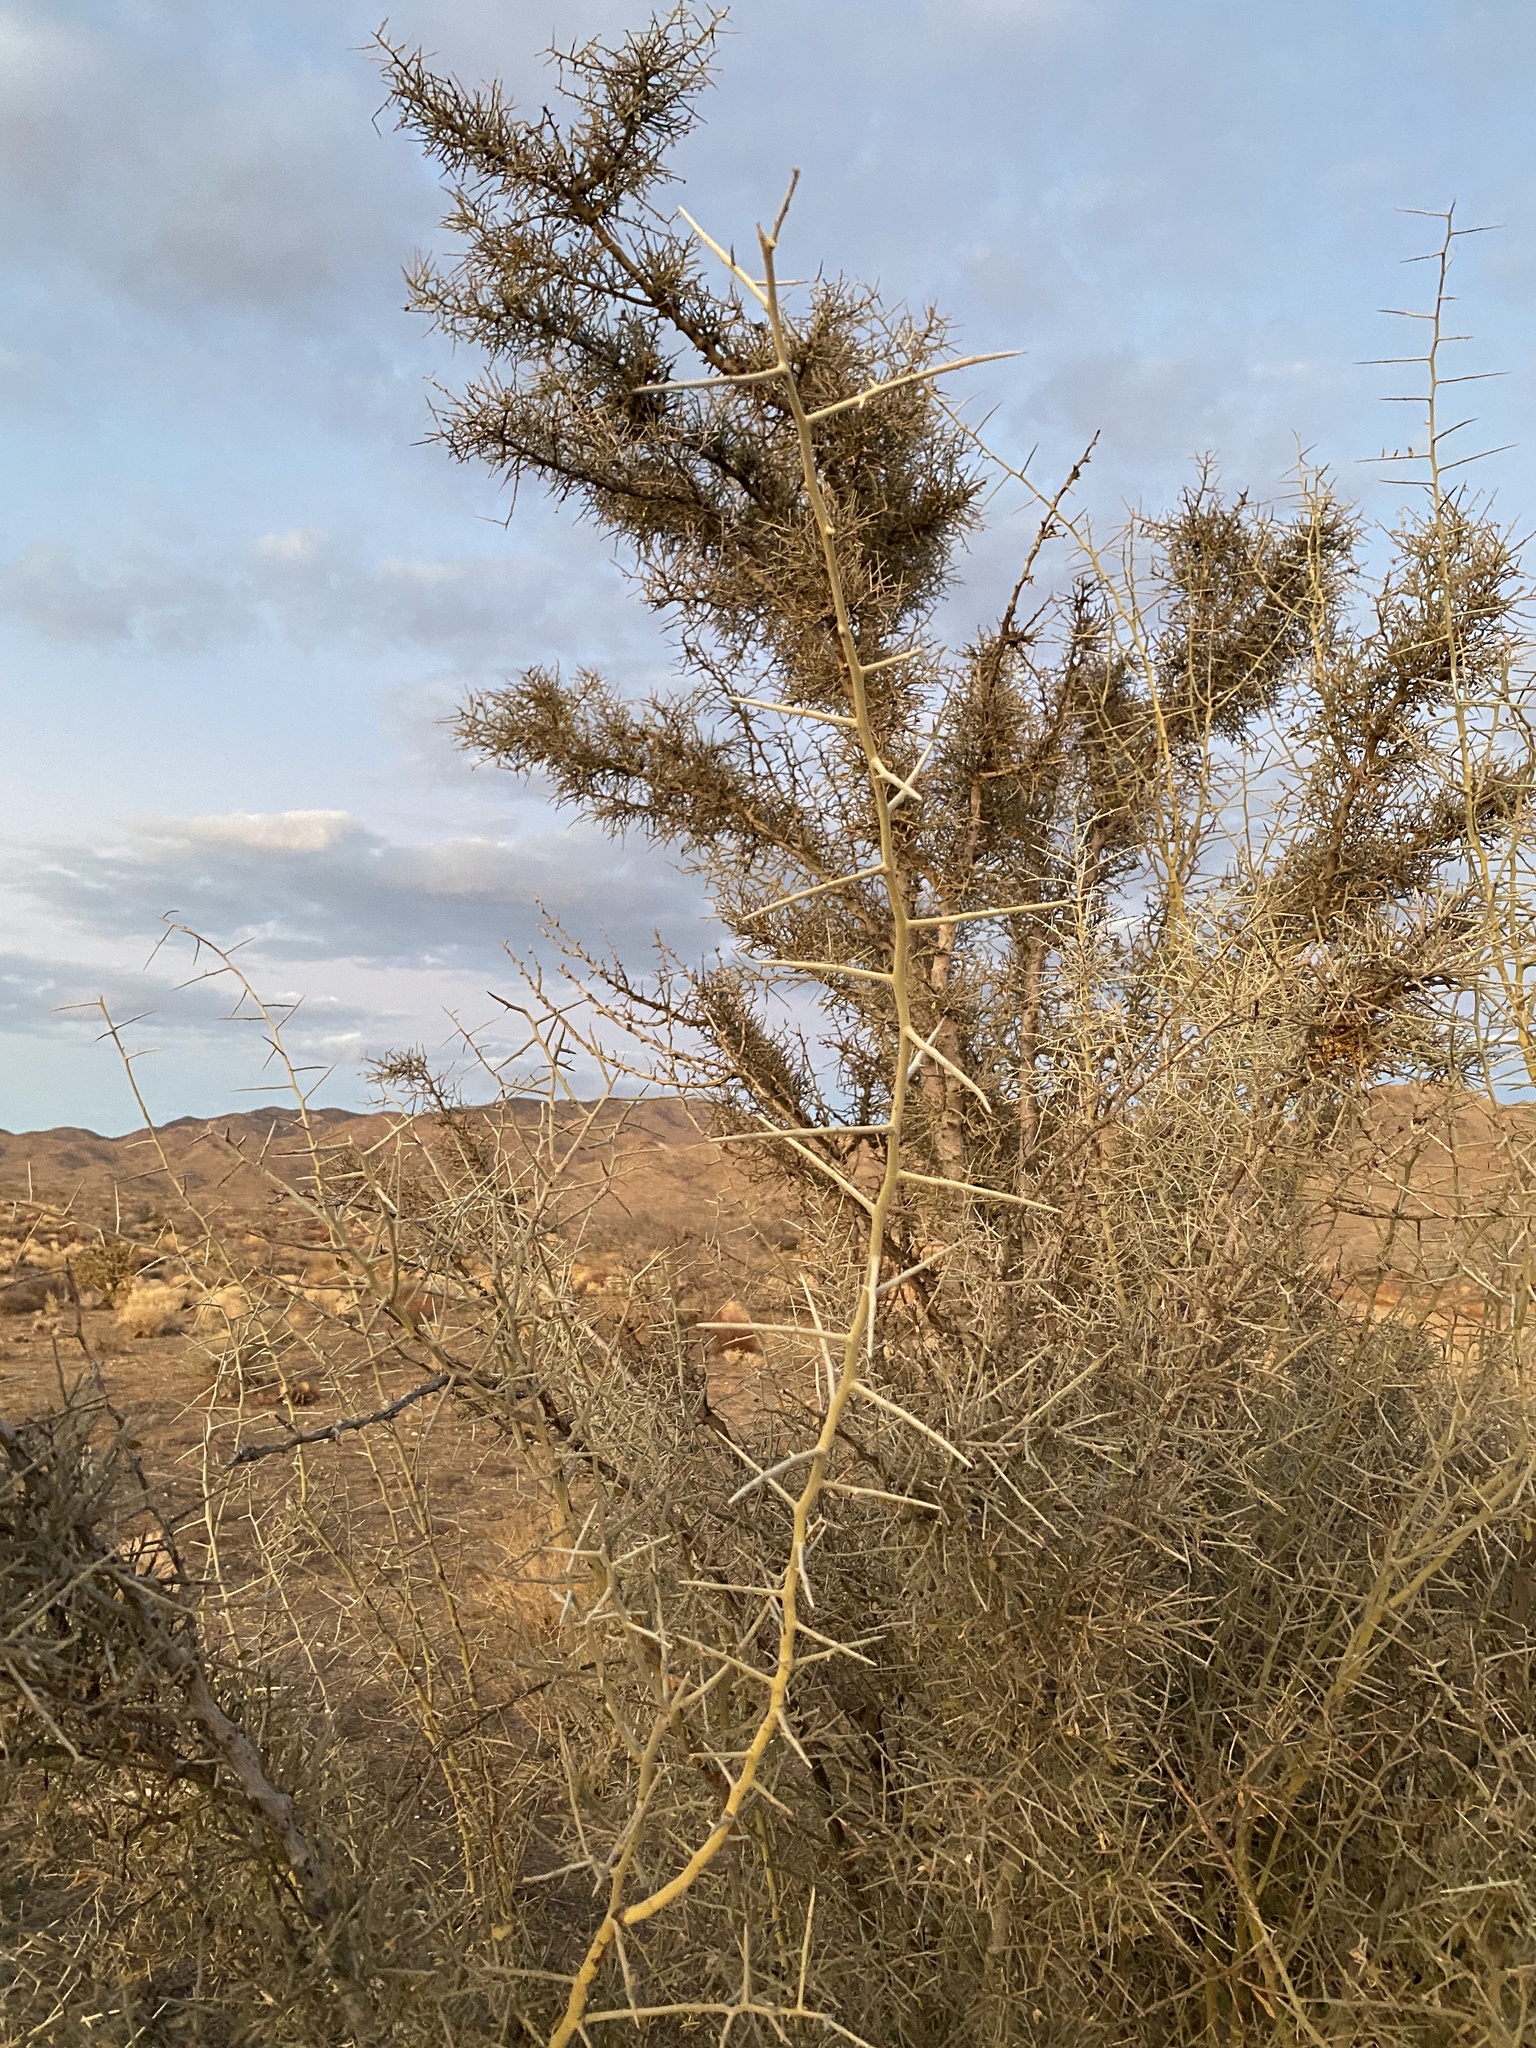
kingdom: Plantae
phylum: Tracheophyta
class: Magnoliopsida
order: Rosales
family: Rhamnaceae
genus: Sarcomphalus
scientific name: Sarcomphalus obtusifolius
